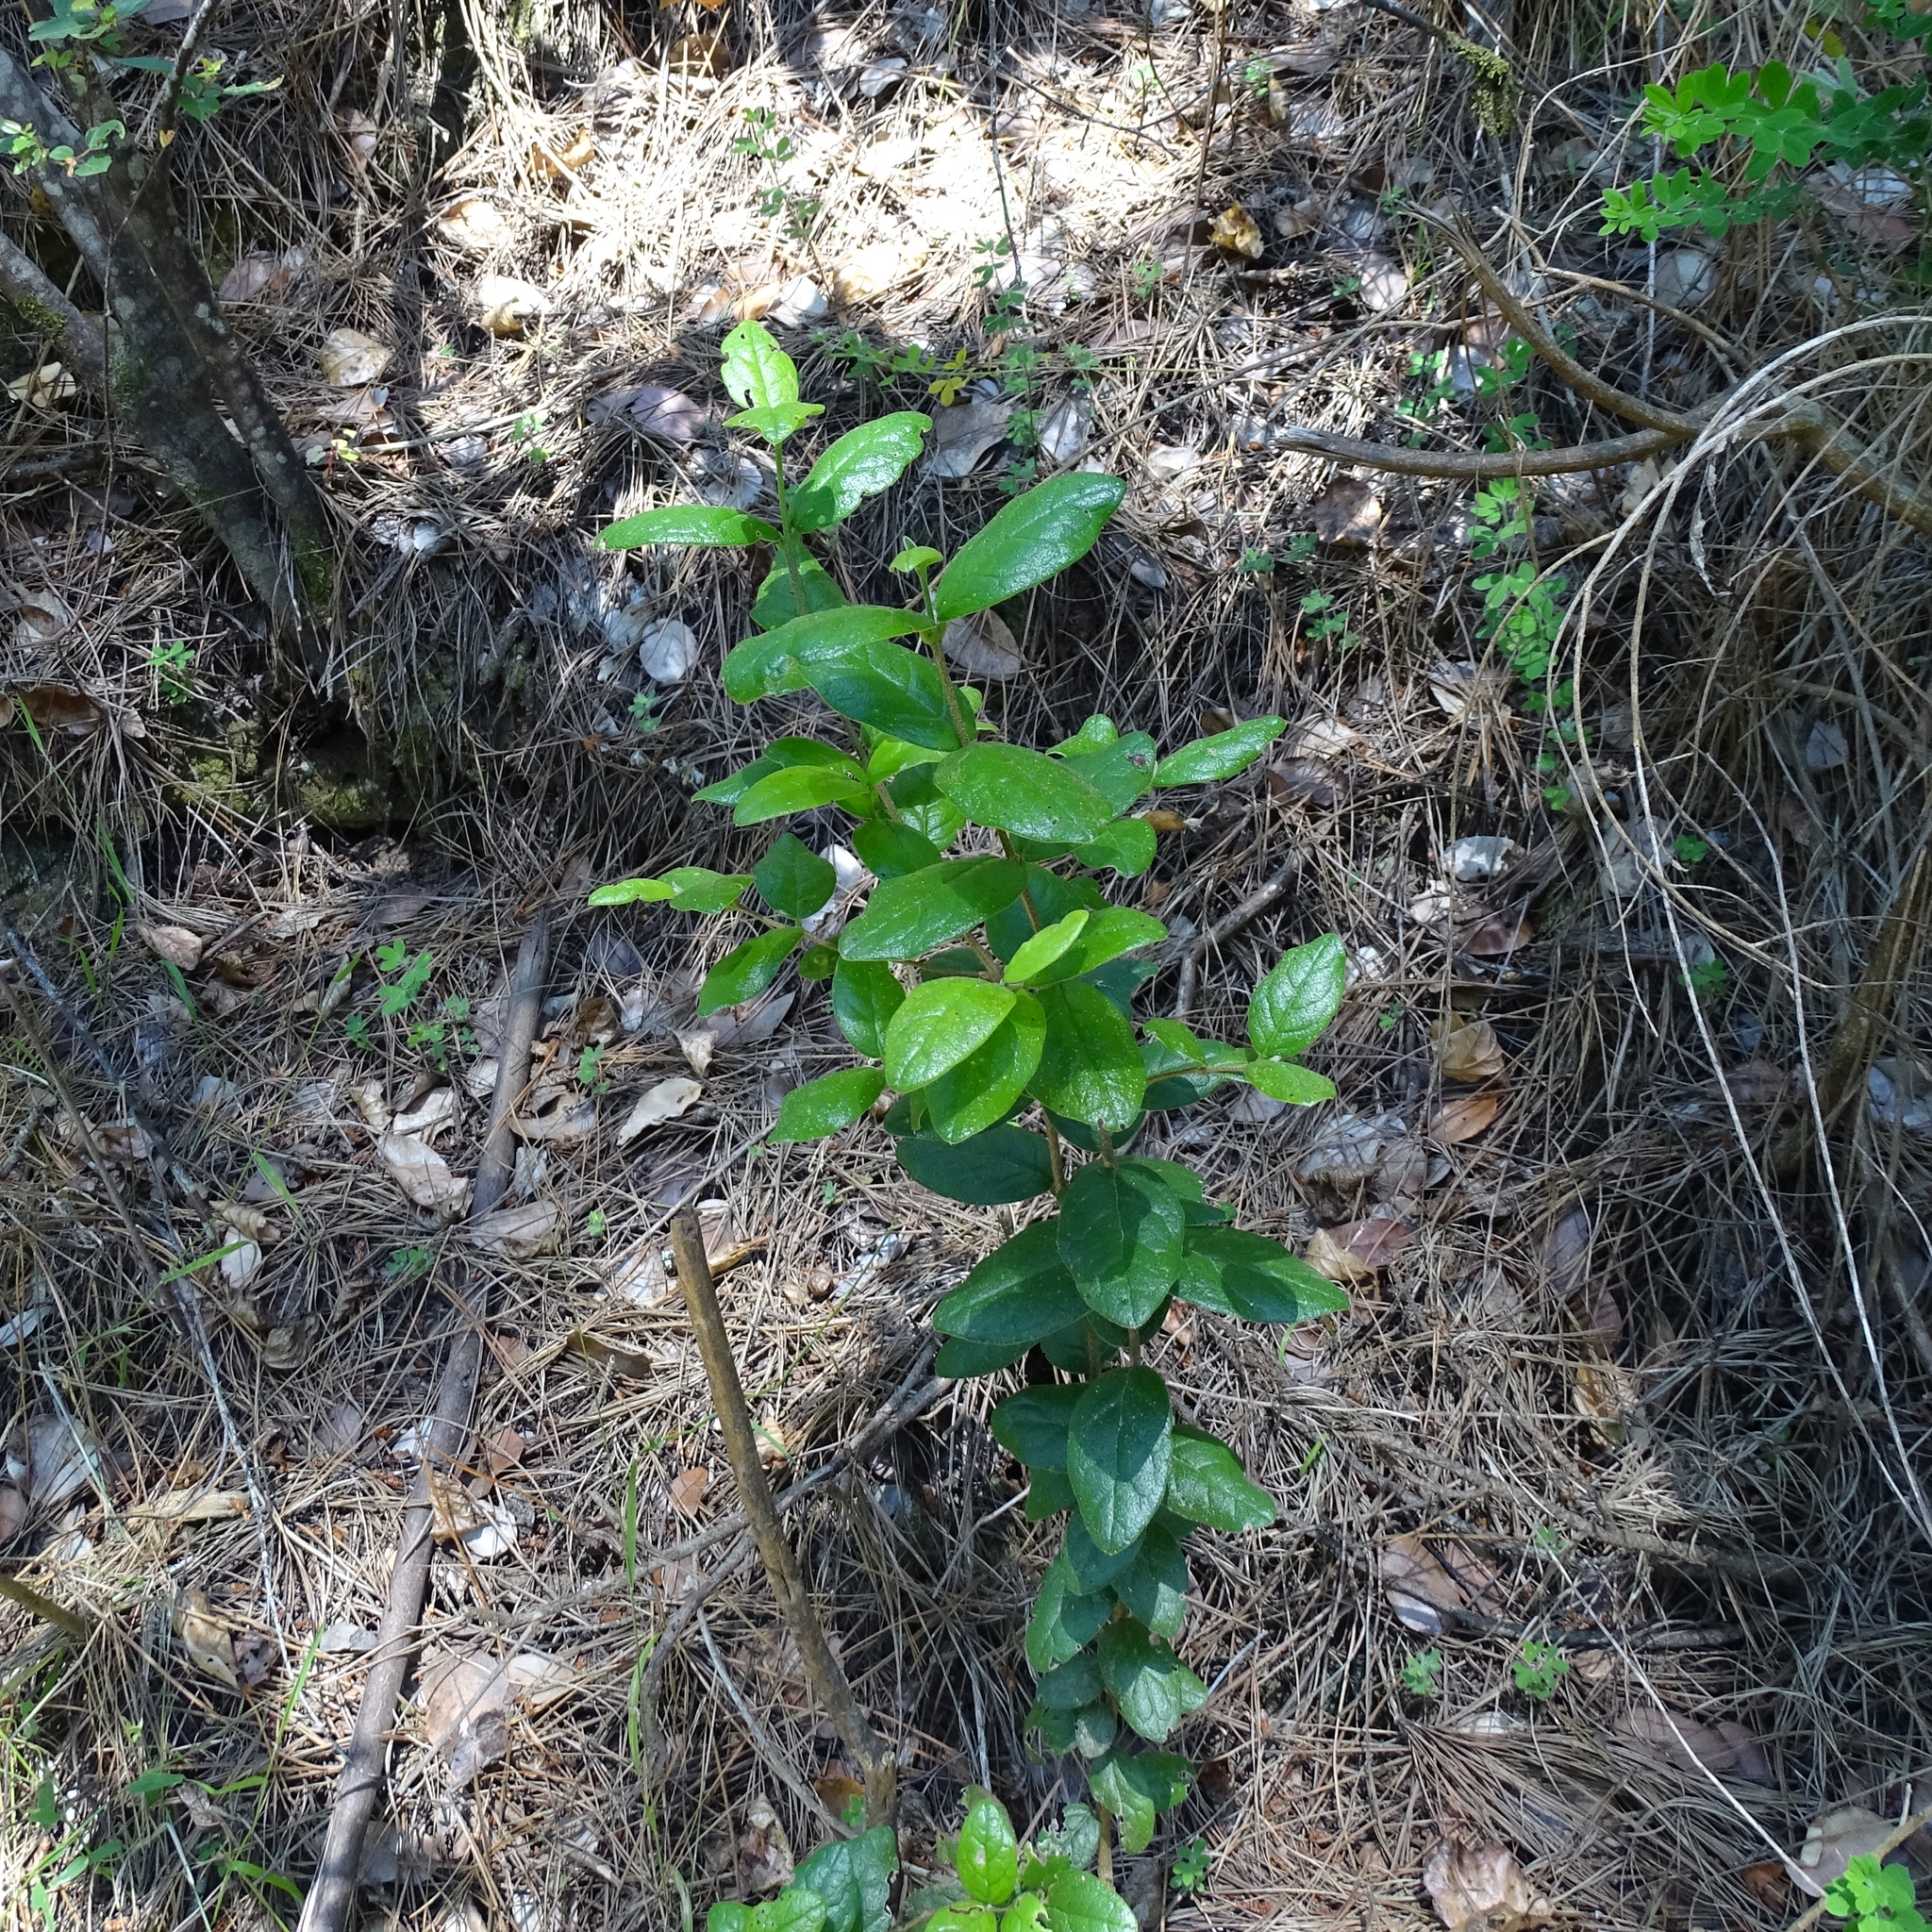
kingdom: Plantae
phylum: Tracheophyta
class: Magnoliopsida
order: Laurales
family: Monimiaceae
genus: Peumus
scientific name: Peumus boldus
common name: Boldo
